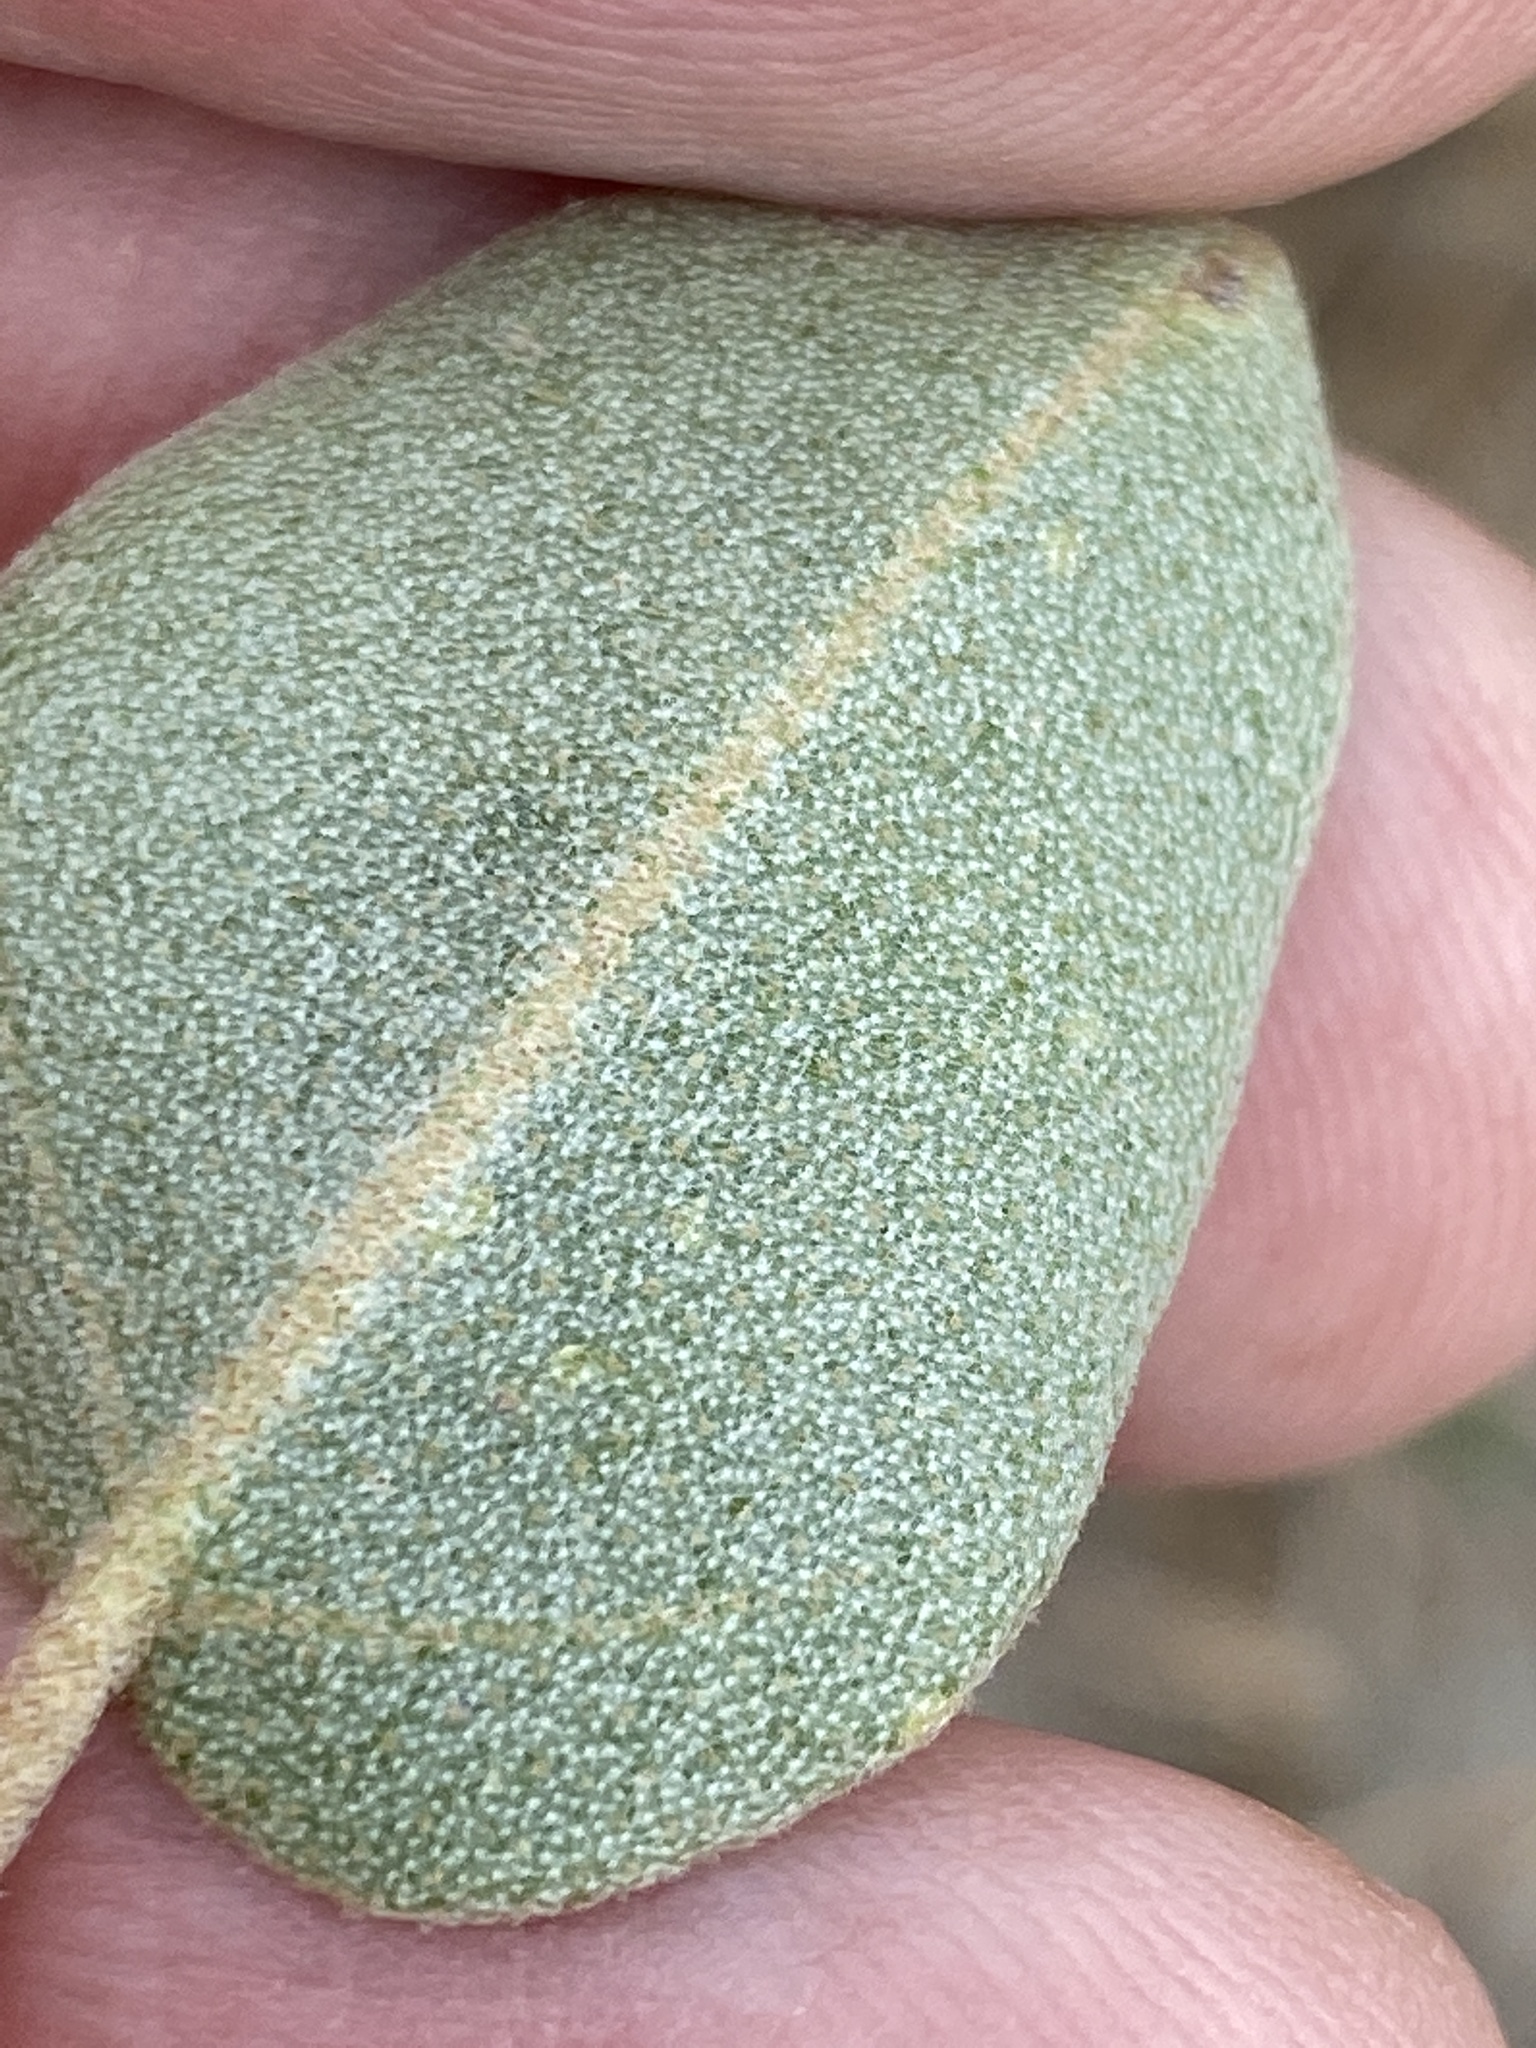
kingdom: Plantae
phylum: Tracheophyta
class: Magnoliopsida
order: Malpighiales
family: Euphorbiaceae
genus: Croton
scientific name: Croton punctatus
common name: Beach-tea
